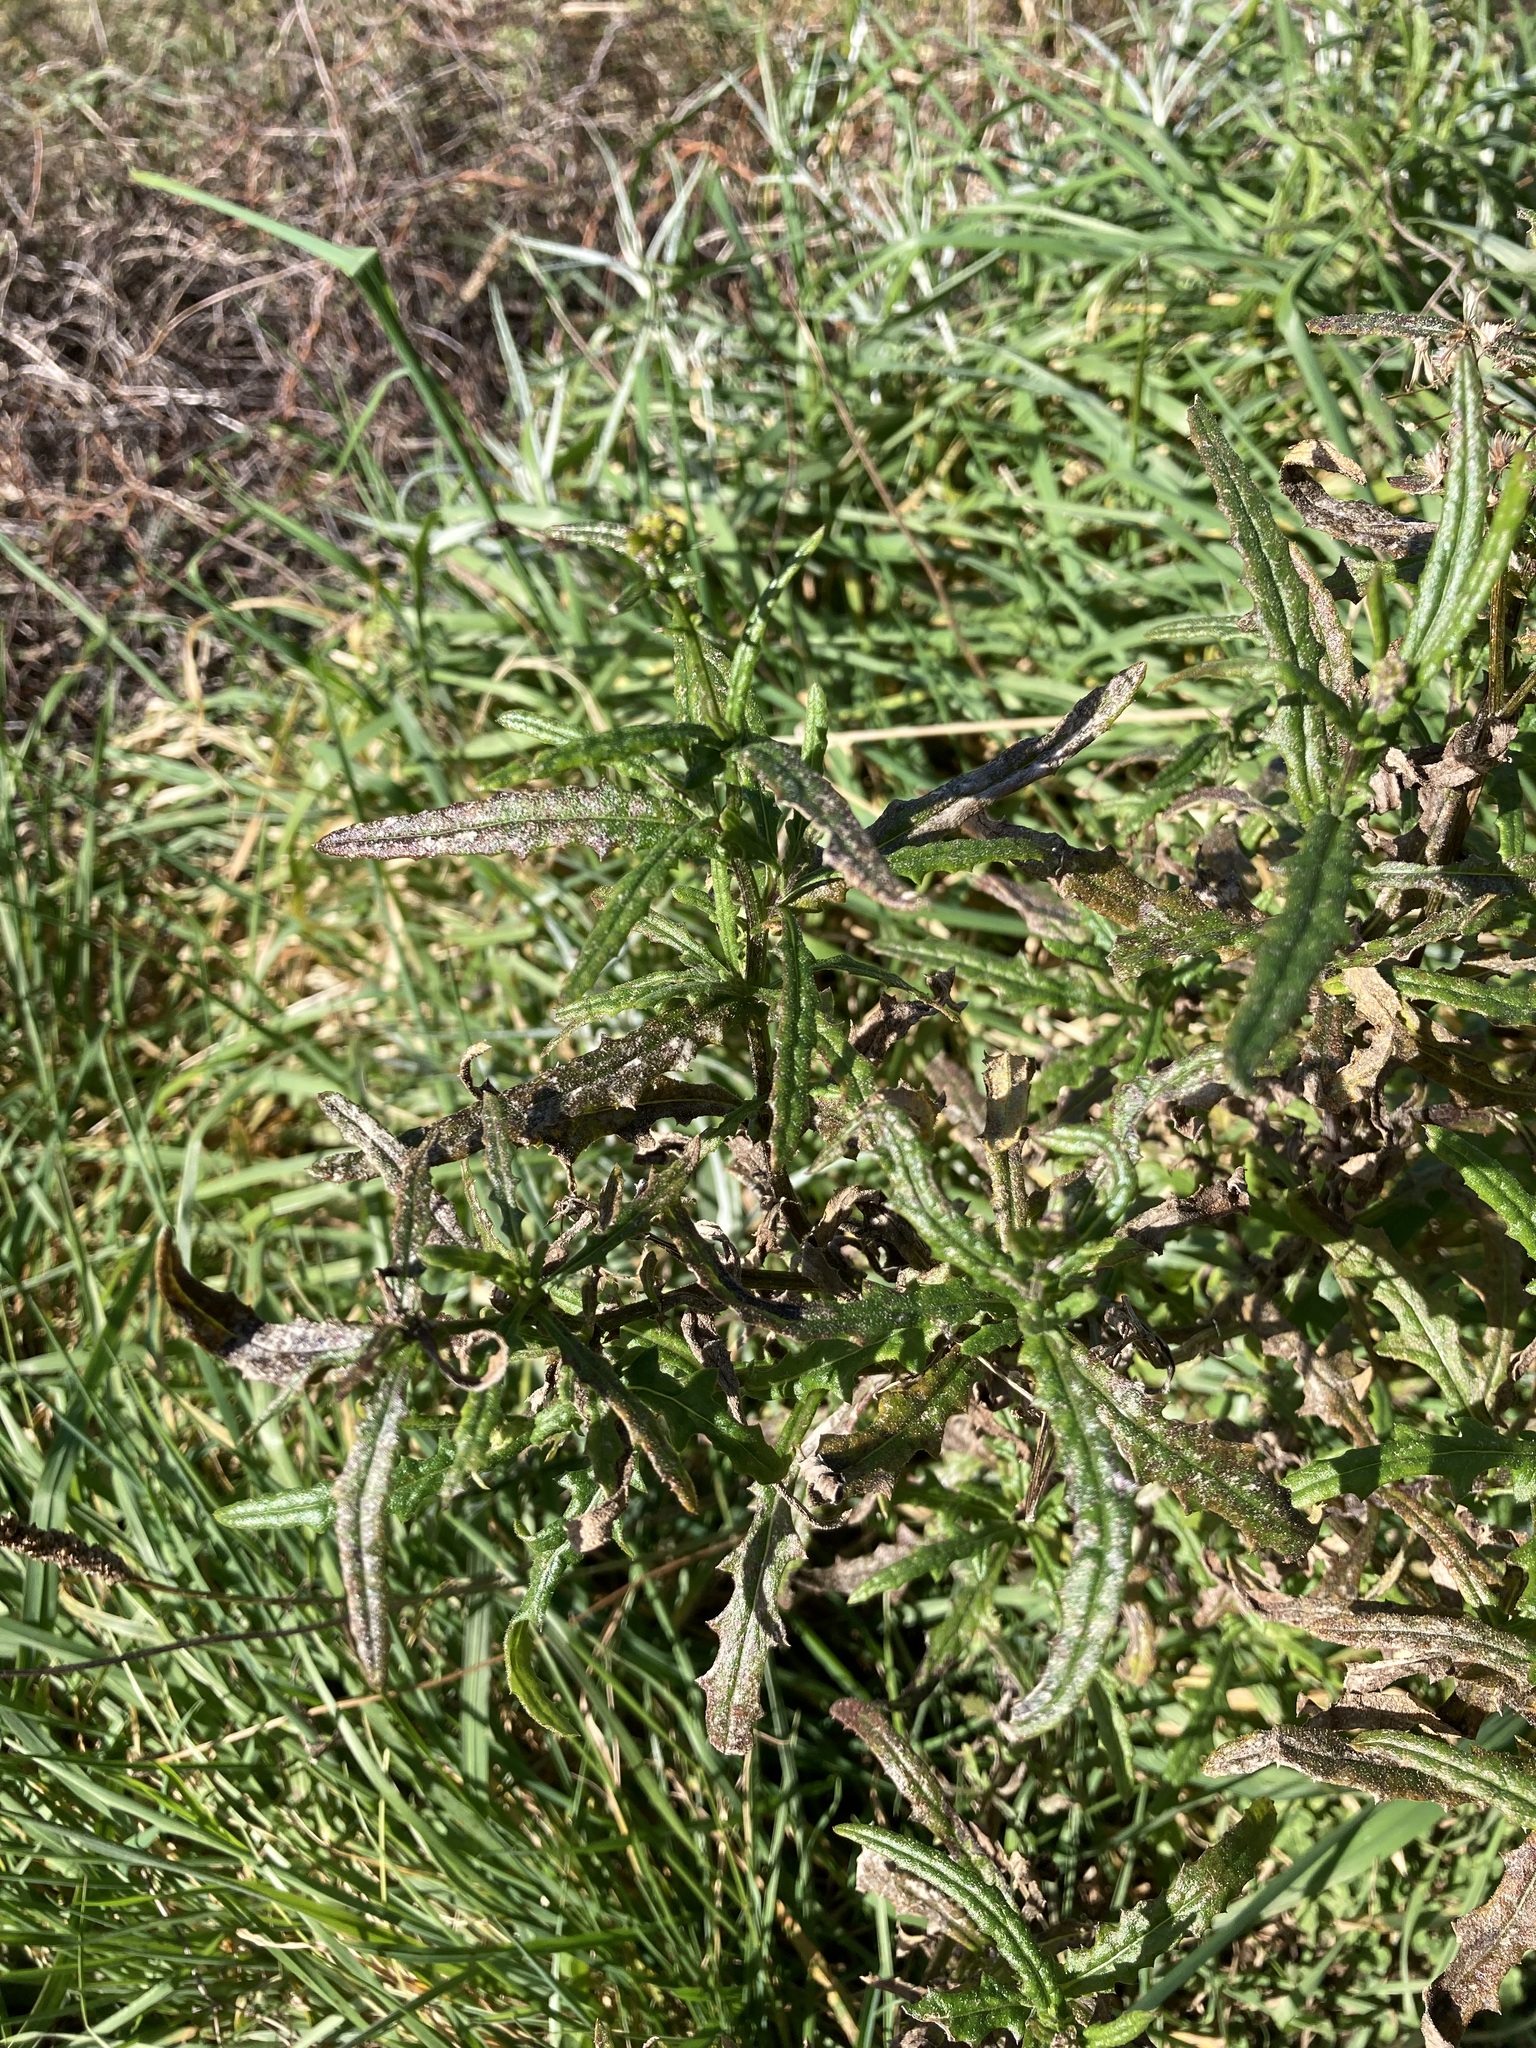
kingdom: Plantae
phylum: Tracheophyta
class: Magnoliopsida
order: Asterales
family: Asteraceae
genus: Senecio
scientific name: Senecio hispidulus
